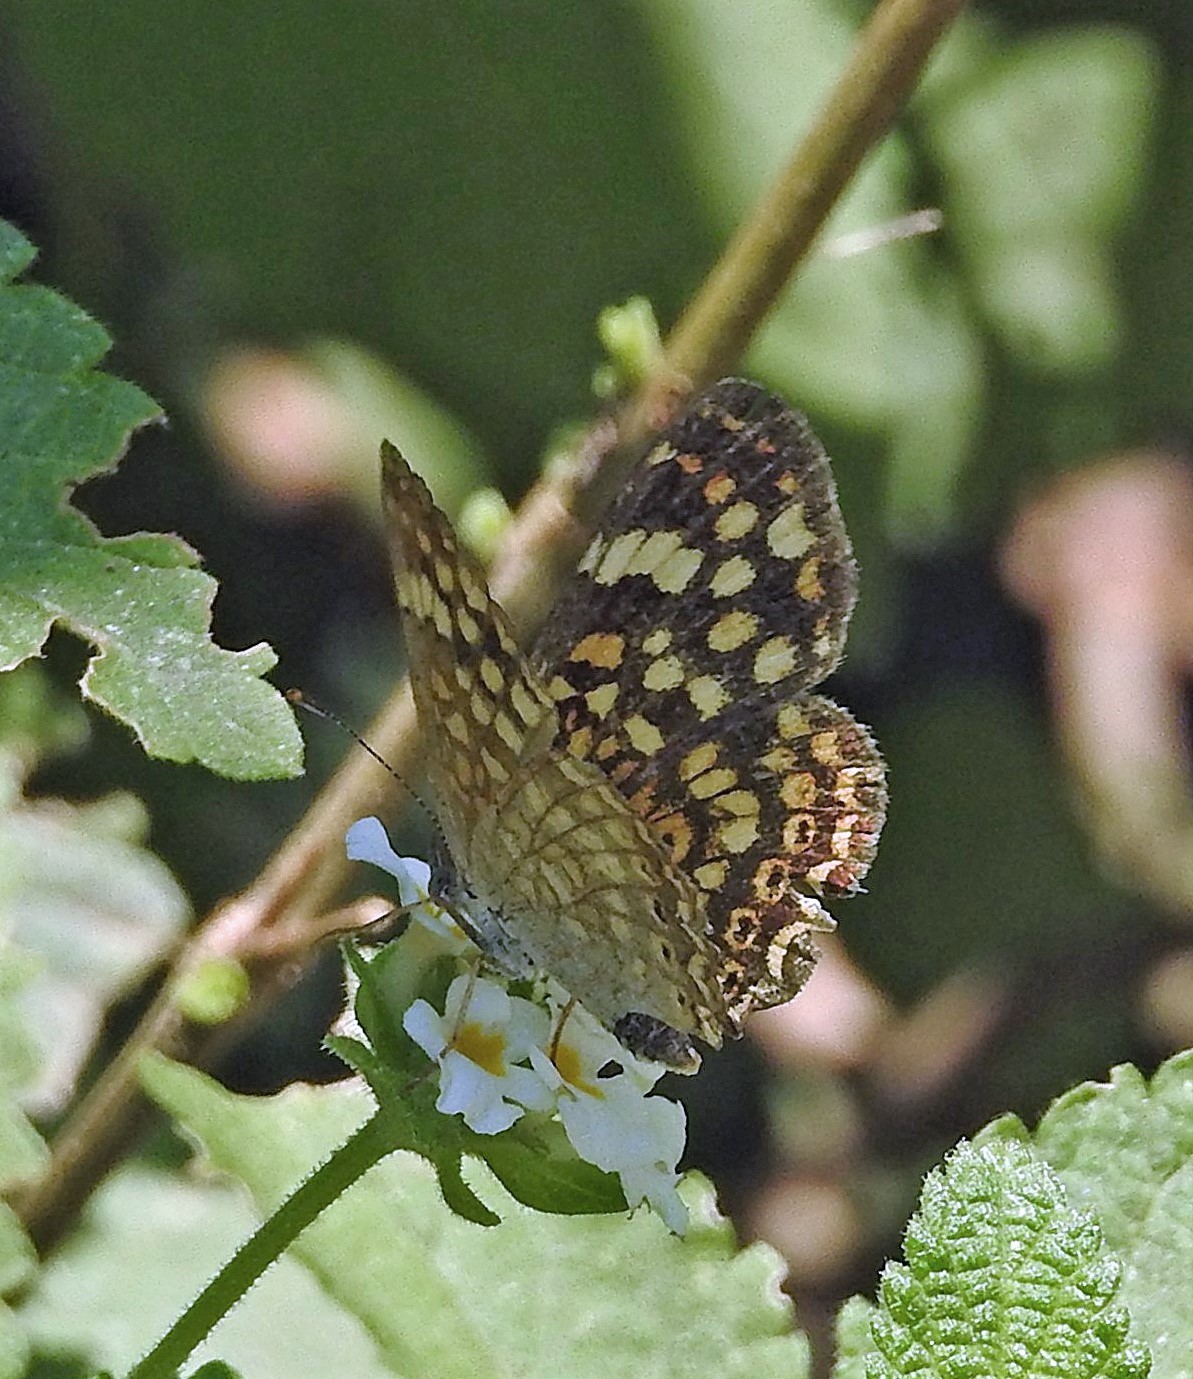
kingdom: Animalia
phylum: Arthropoda
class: Insecta
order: Lepidoptera
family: Nymphalidae
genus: Phystis
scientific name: Phystis simois
